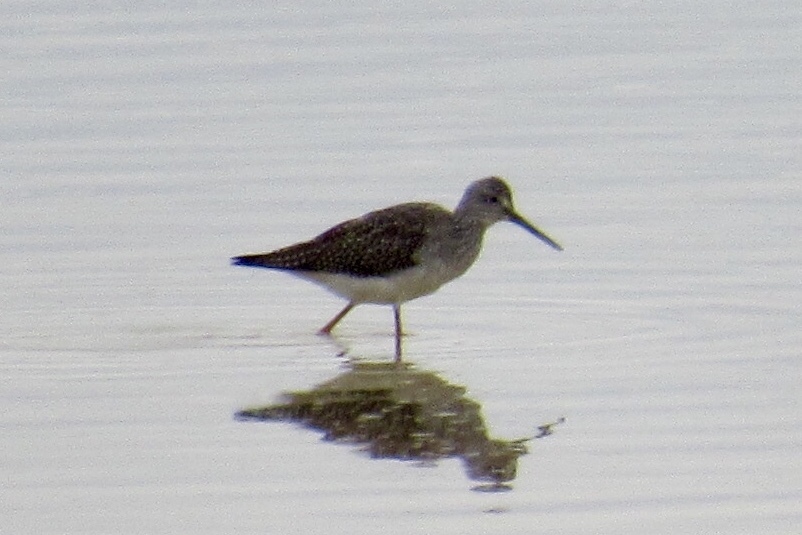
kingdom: Animalia
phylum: Chordata
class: Aves
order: Charadriiformes
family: Scolopacidae
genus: Tringa
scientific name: Tringa melanoleuca
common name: Greater yellowlegs
